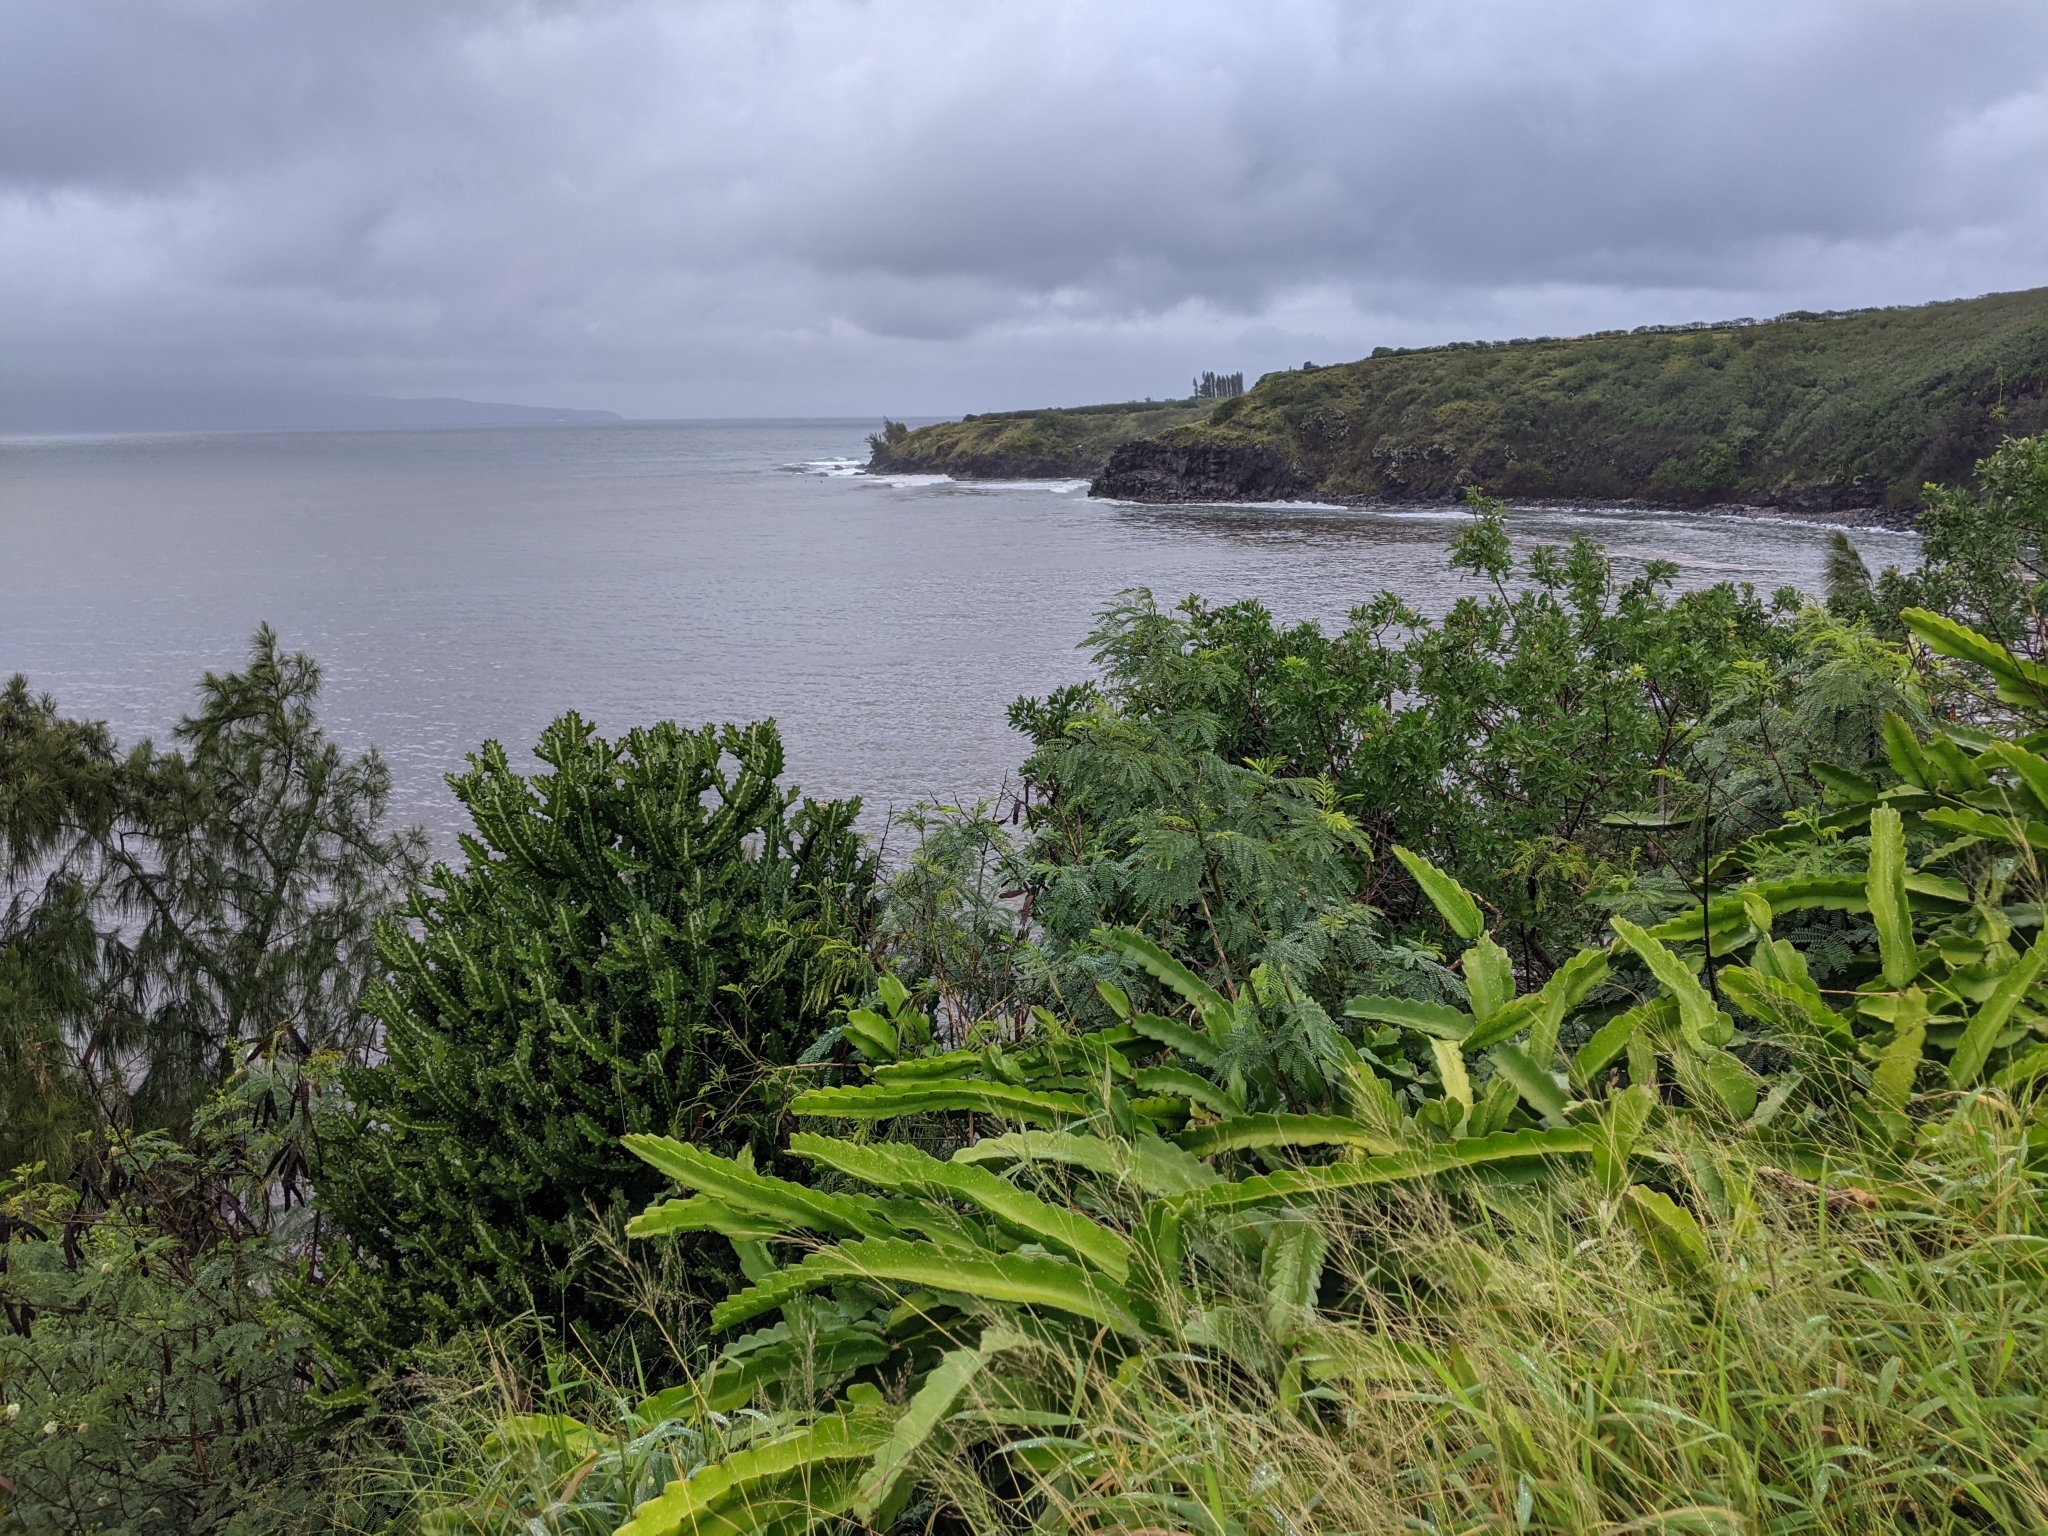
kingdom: Plantae
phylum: Tracheophyta
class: Magnoliopsida
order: Caryophyllales
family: Cactaceae
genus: Selenicereus
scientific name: Selenicereus undatus
